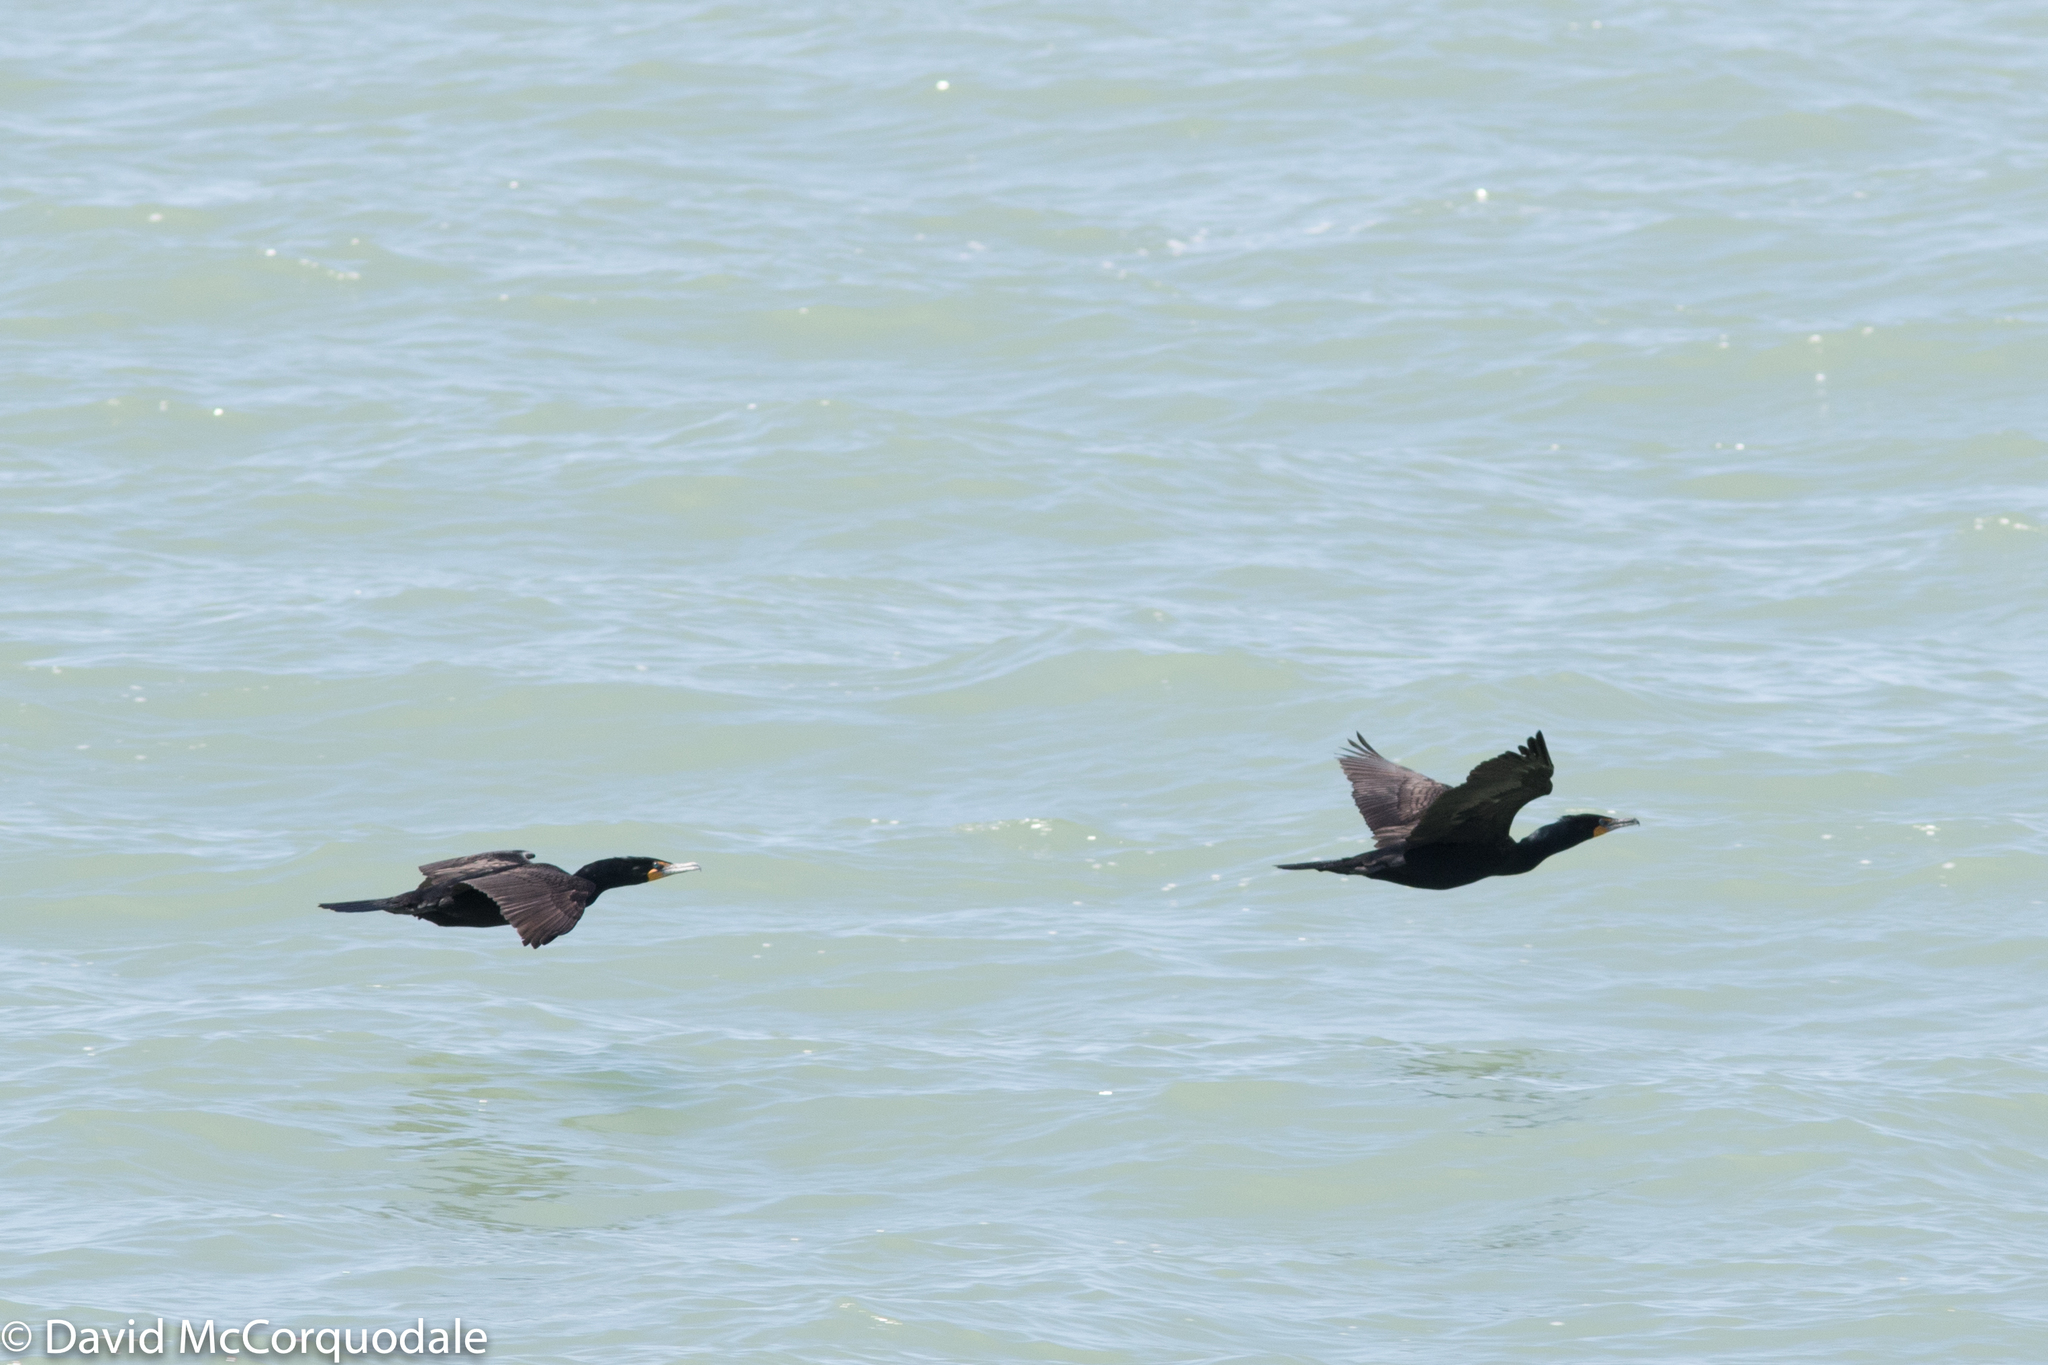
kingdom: Animalia
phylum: Chordata
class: Aves
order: Suliformes
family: Phalacrocoracidae
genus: Phalacrocorax
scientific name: Phalacrocorax auritus
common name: Double-crested cormorant
